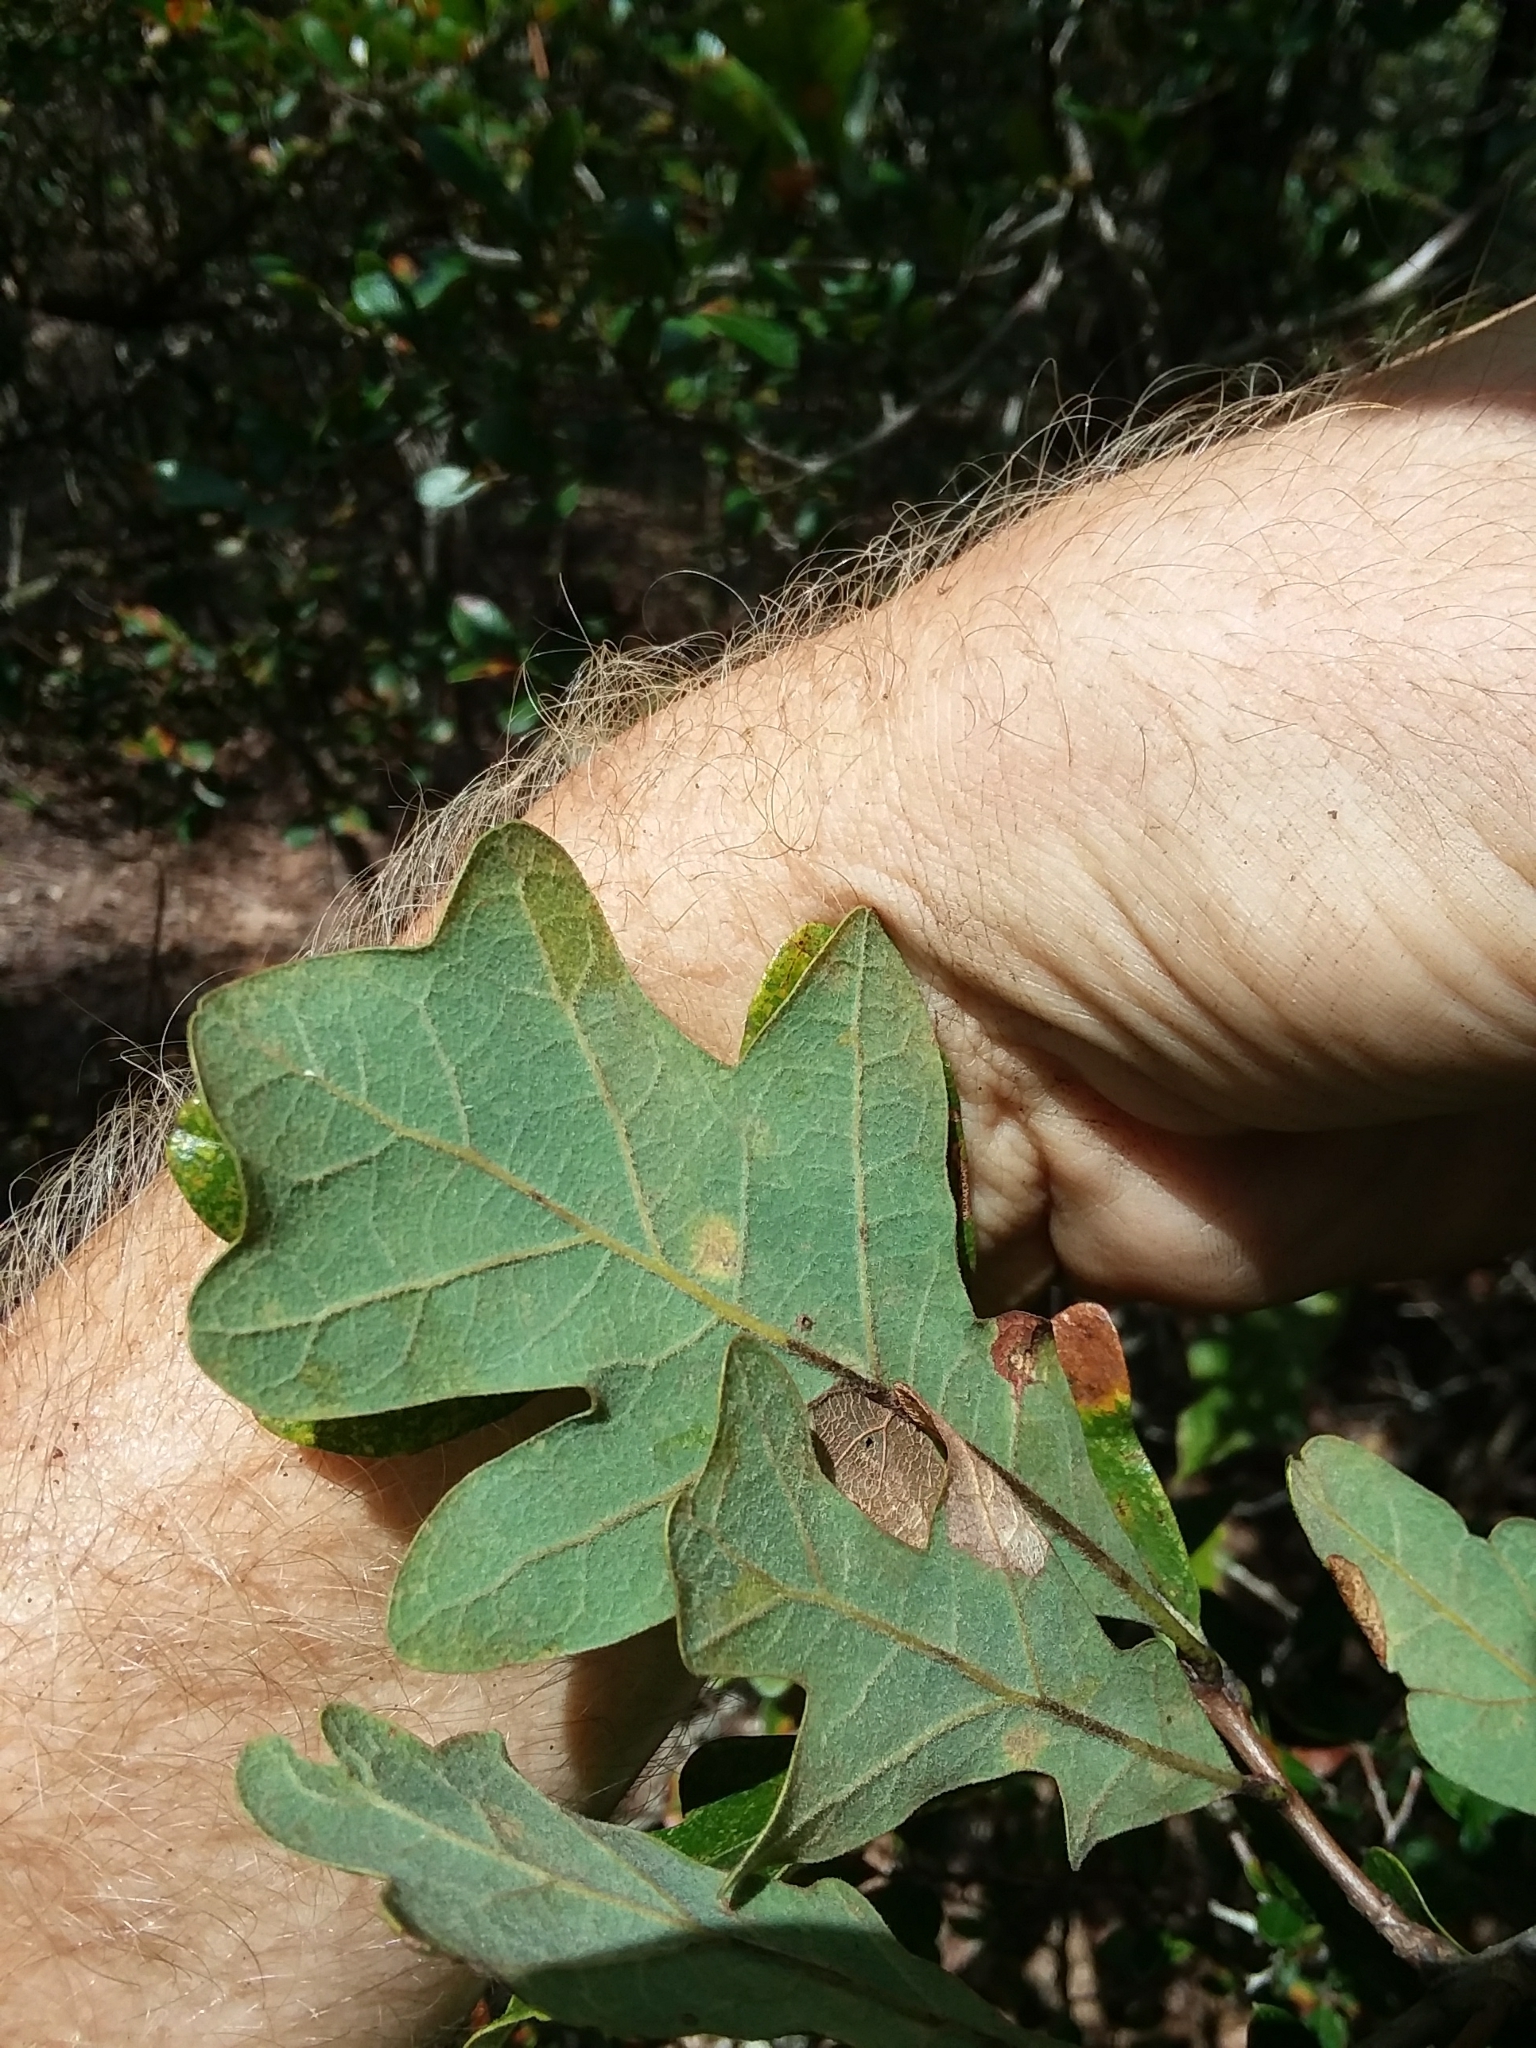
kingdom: Plantae
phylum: Tracheophyta
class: Magnoliopsida
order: Fagales
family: Fagaceae
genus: Quercus
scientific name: Quercus margaretiae
